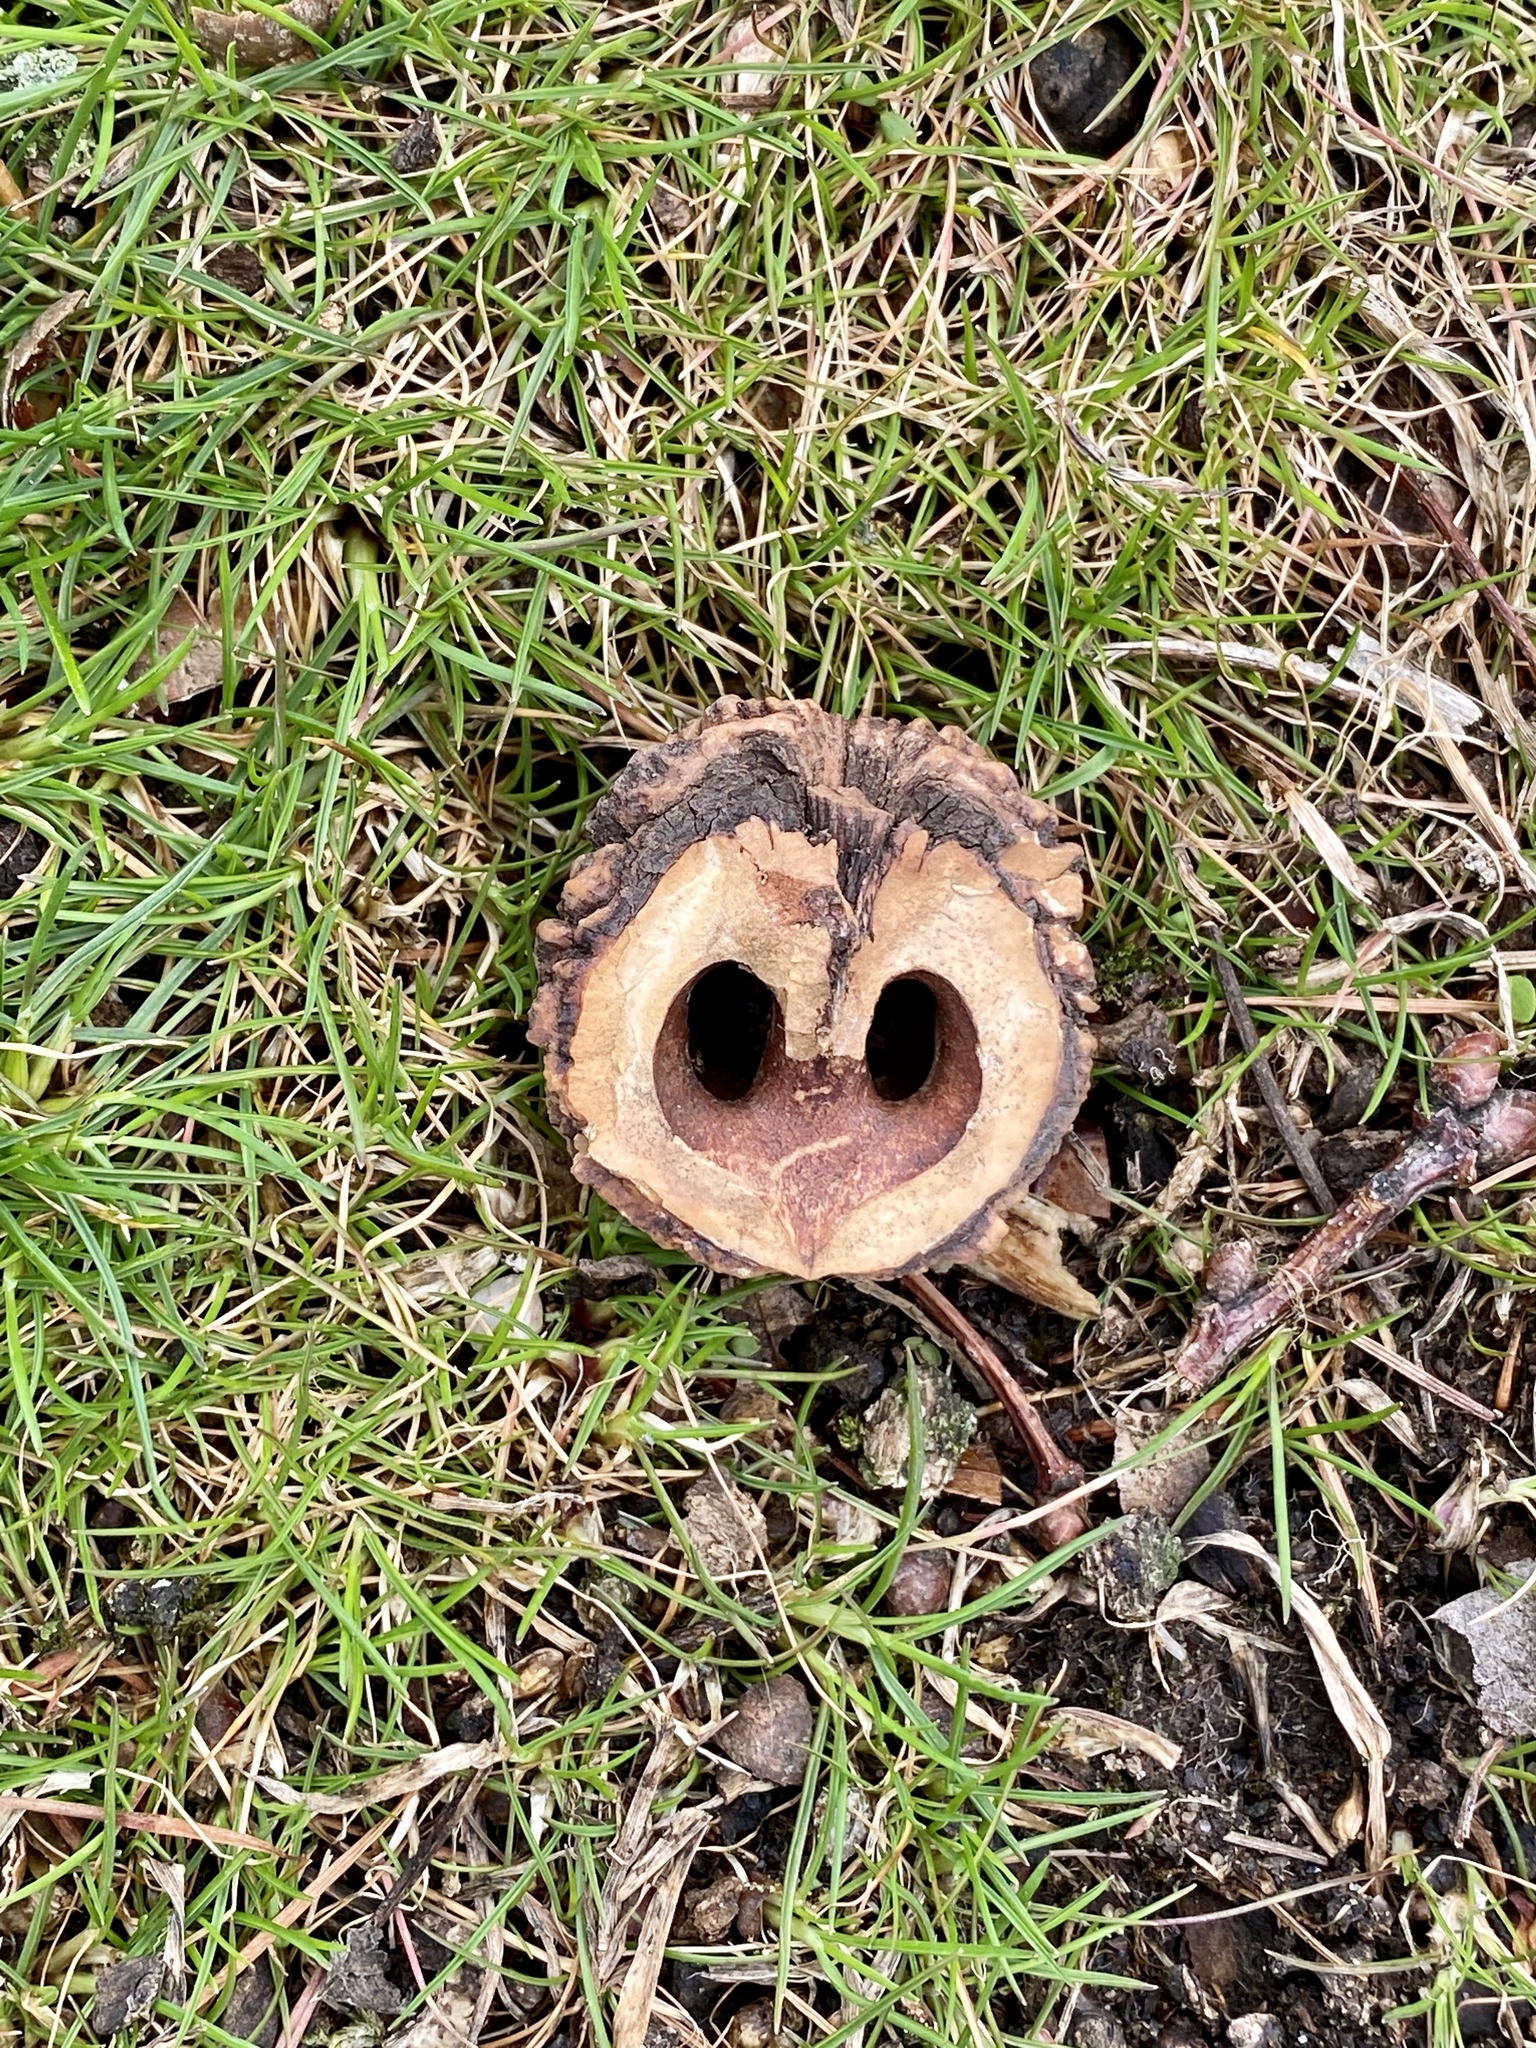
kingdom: Plantae
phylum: Tracheophyta
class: Magnoliopsida
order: Fagales
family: Juglandaceae
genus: Juglans
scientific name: Juglans nigra
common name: Black walnut
